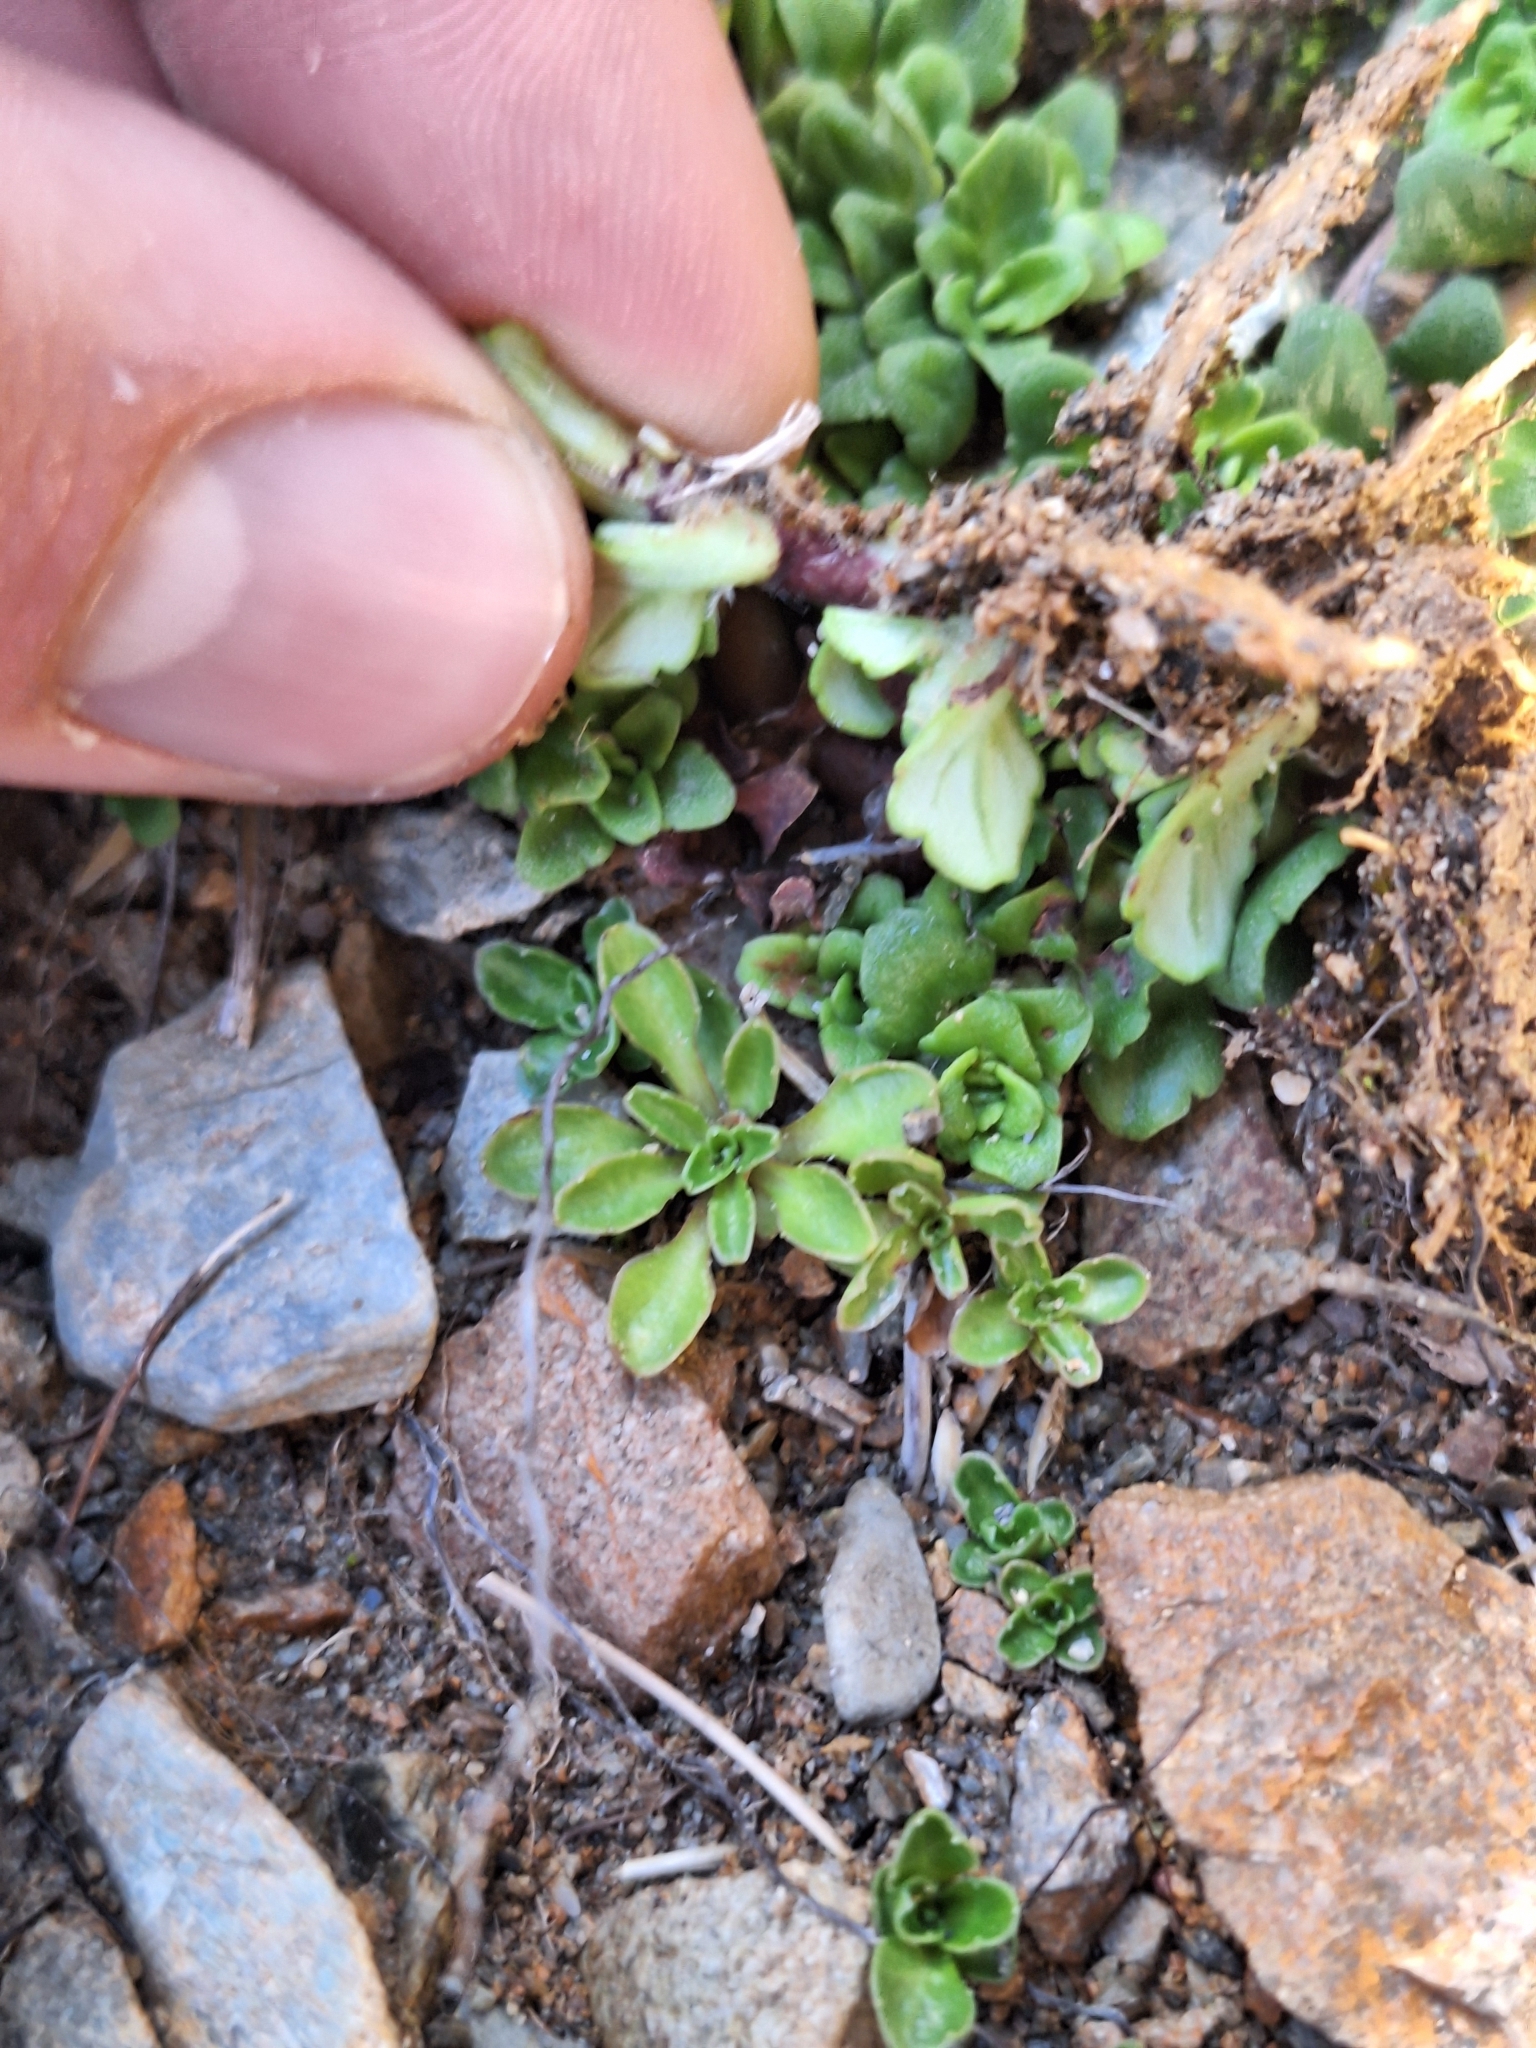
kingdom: Plantae
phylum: Tracheophyta
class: Magnoliopsida
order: Lamiales
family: Plantaginaceae
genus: Ourisia
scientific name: Ourisia caespitosa
